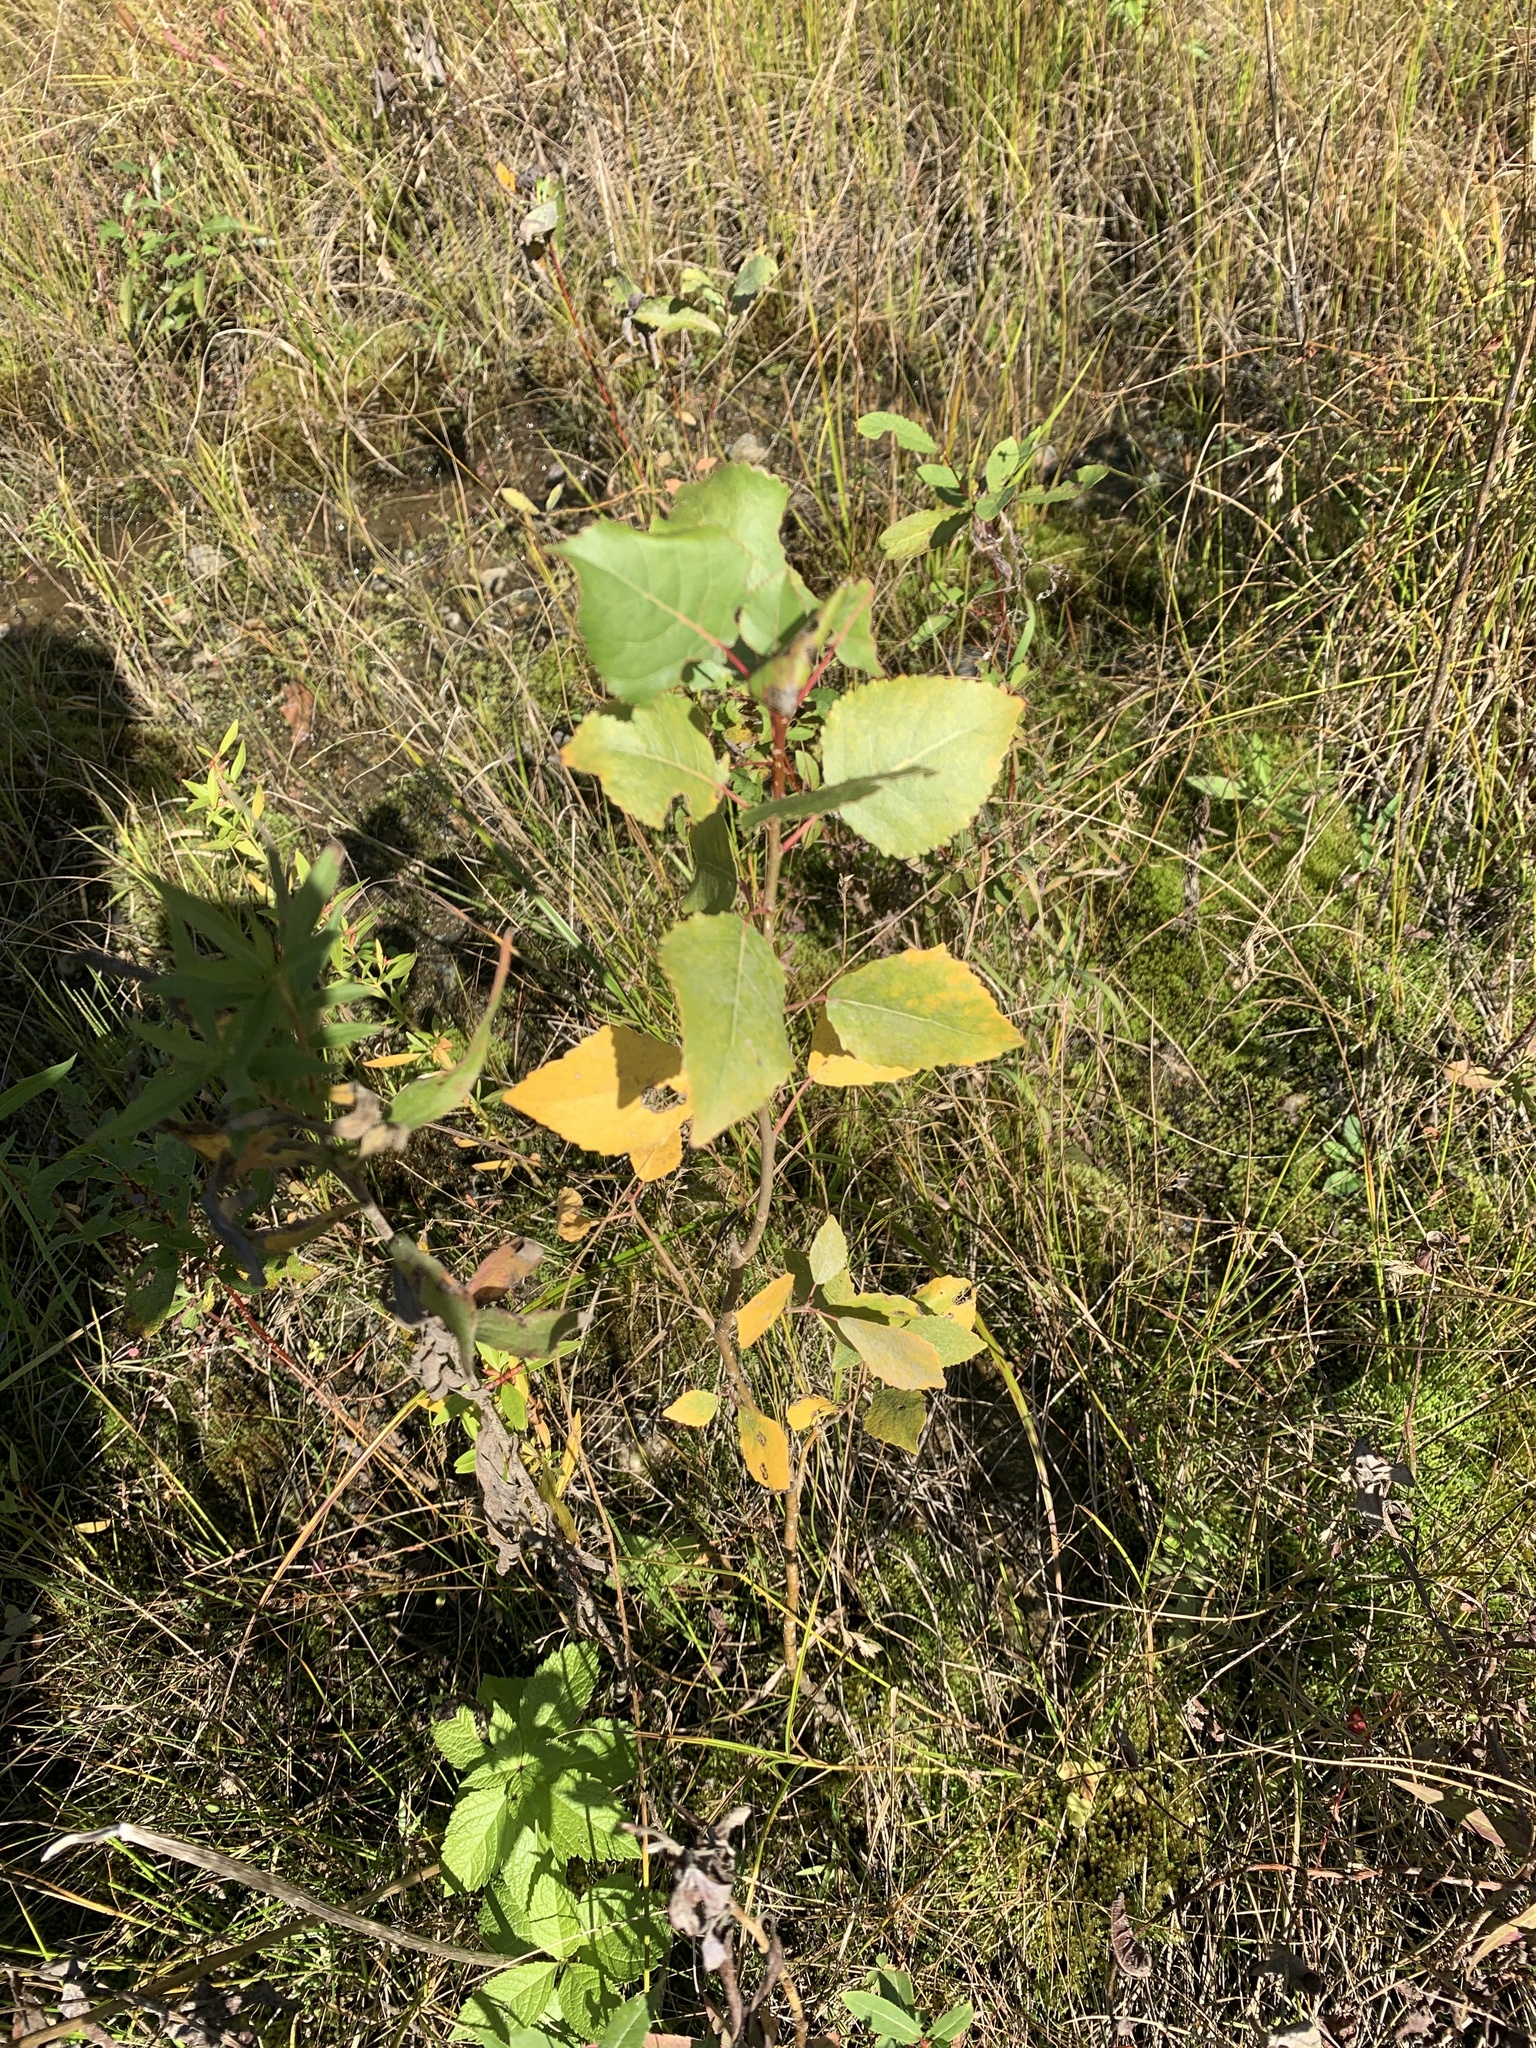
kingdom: Plantae
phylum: Tracheophyta
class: Magnoliopsida
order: Malpighiales
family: Salicaceae
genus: Populus
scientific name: Populus deltoides
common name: Eastern cottonwood
